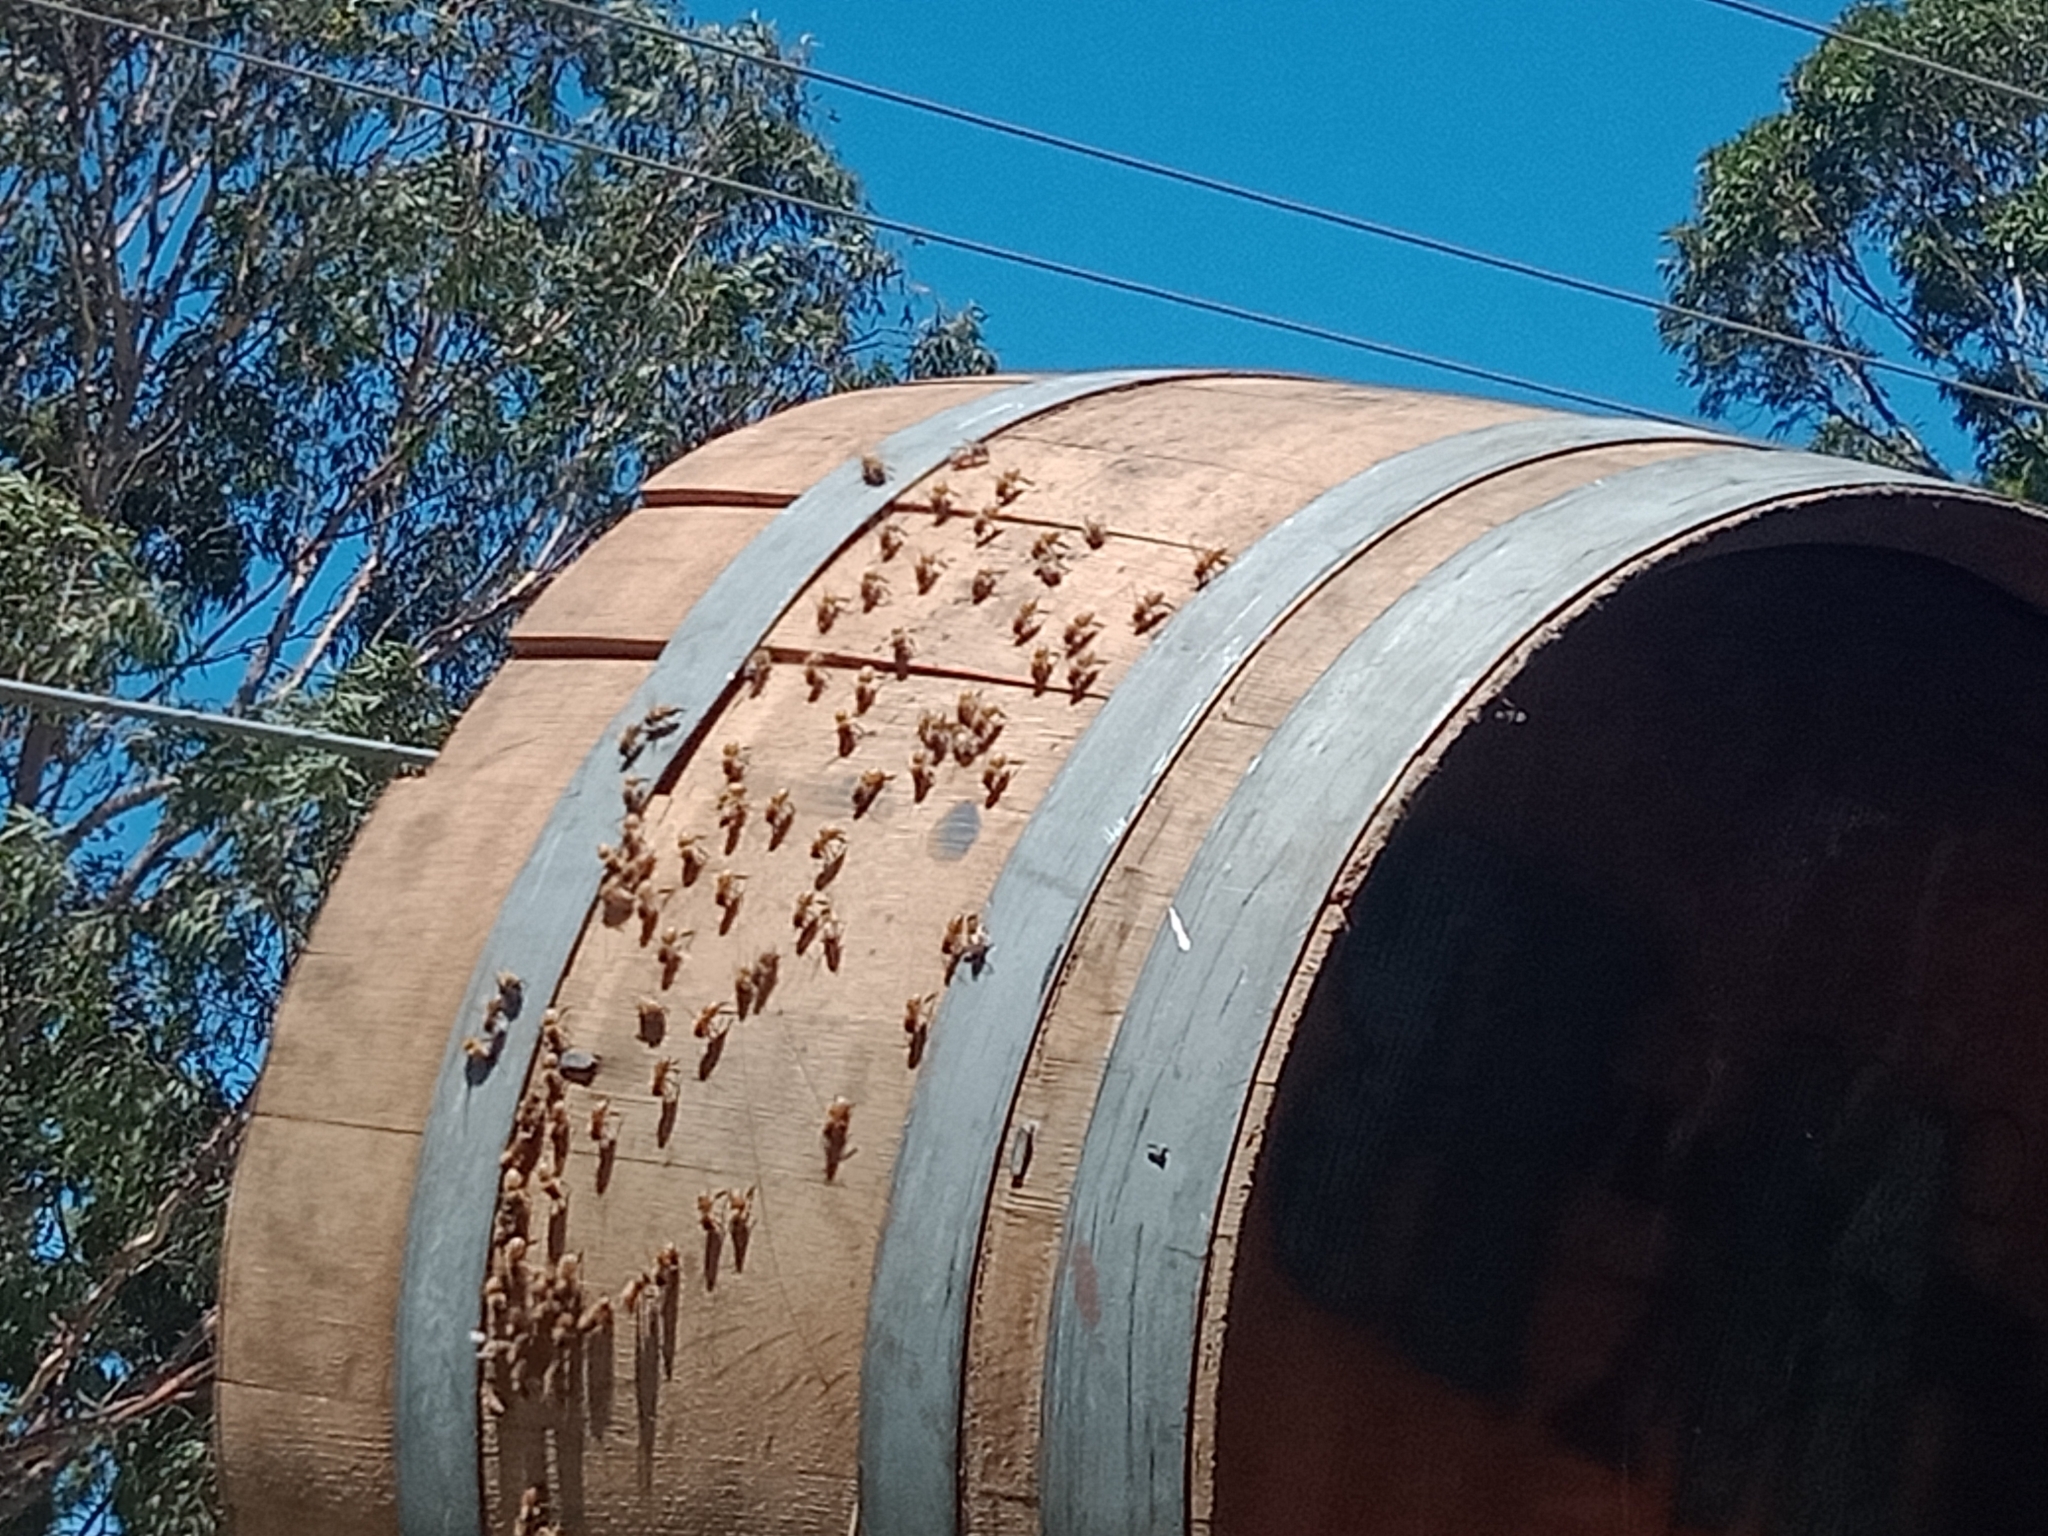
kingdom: Animalia
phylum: Arthropoda
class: Insecta
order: Hymenoptera
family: Apidae
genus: Apis
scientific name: Apis mellifera
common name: Honey bee
